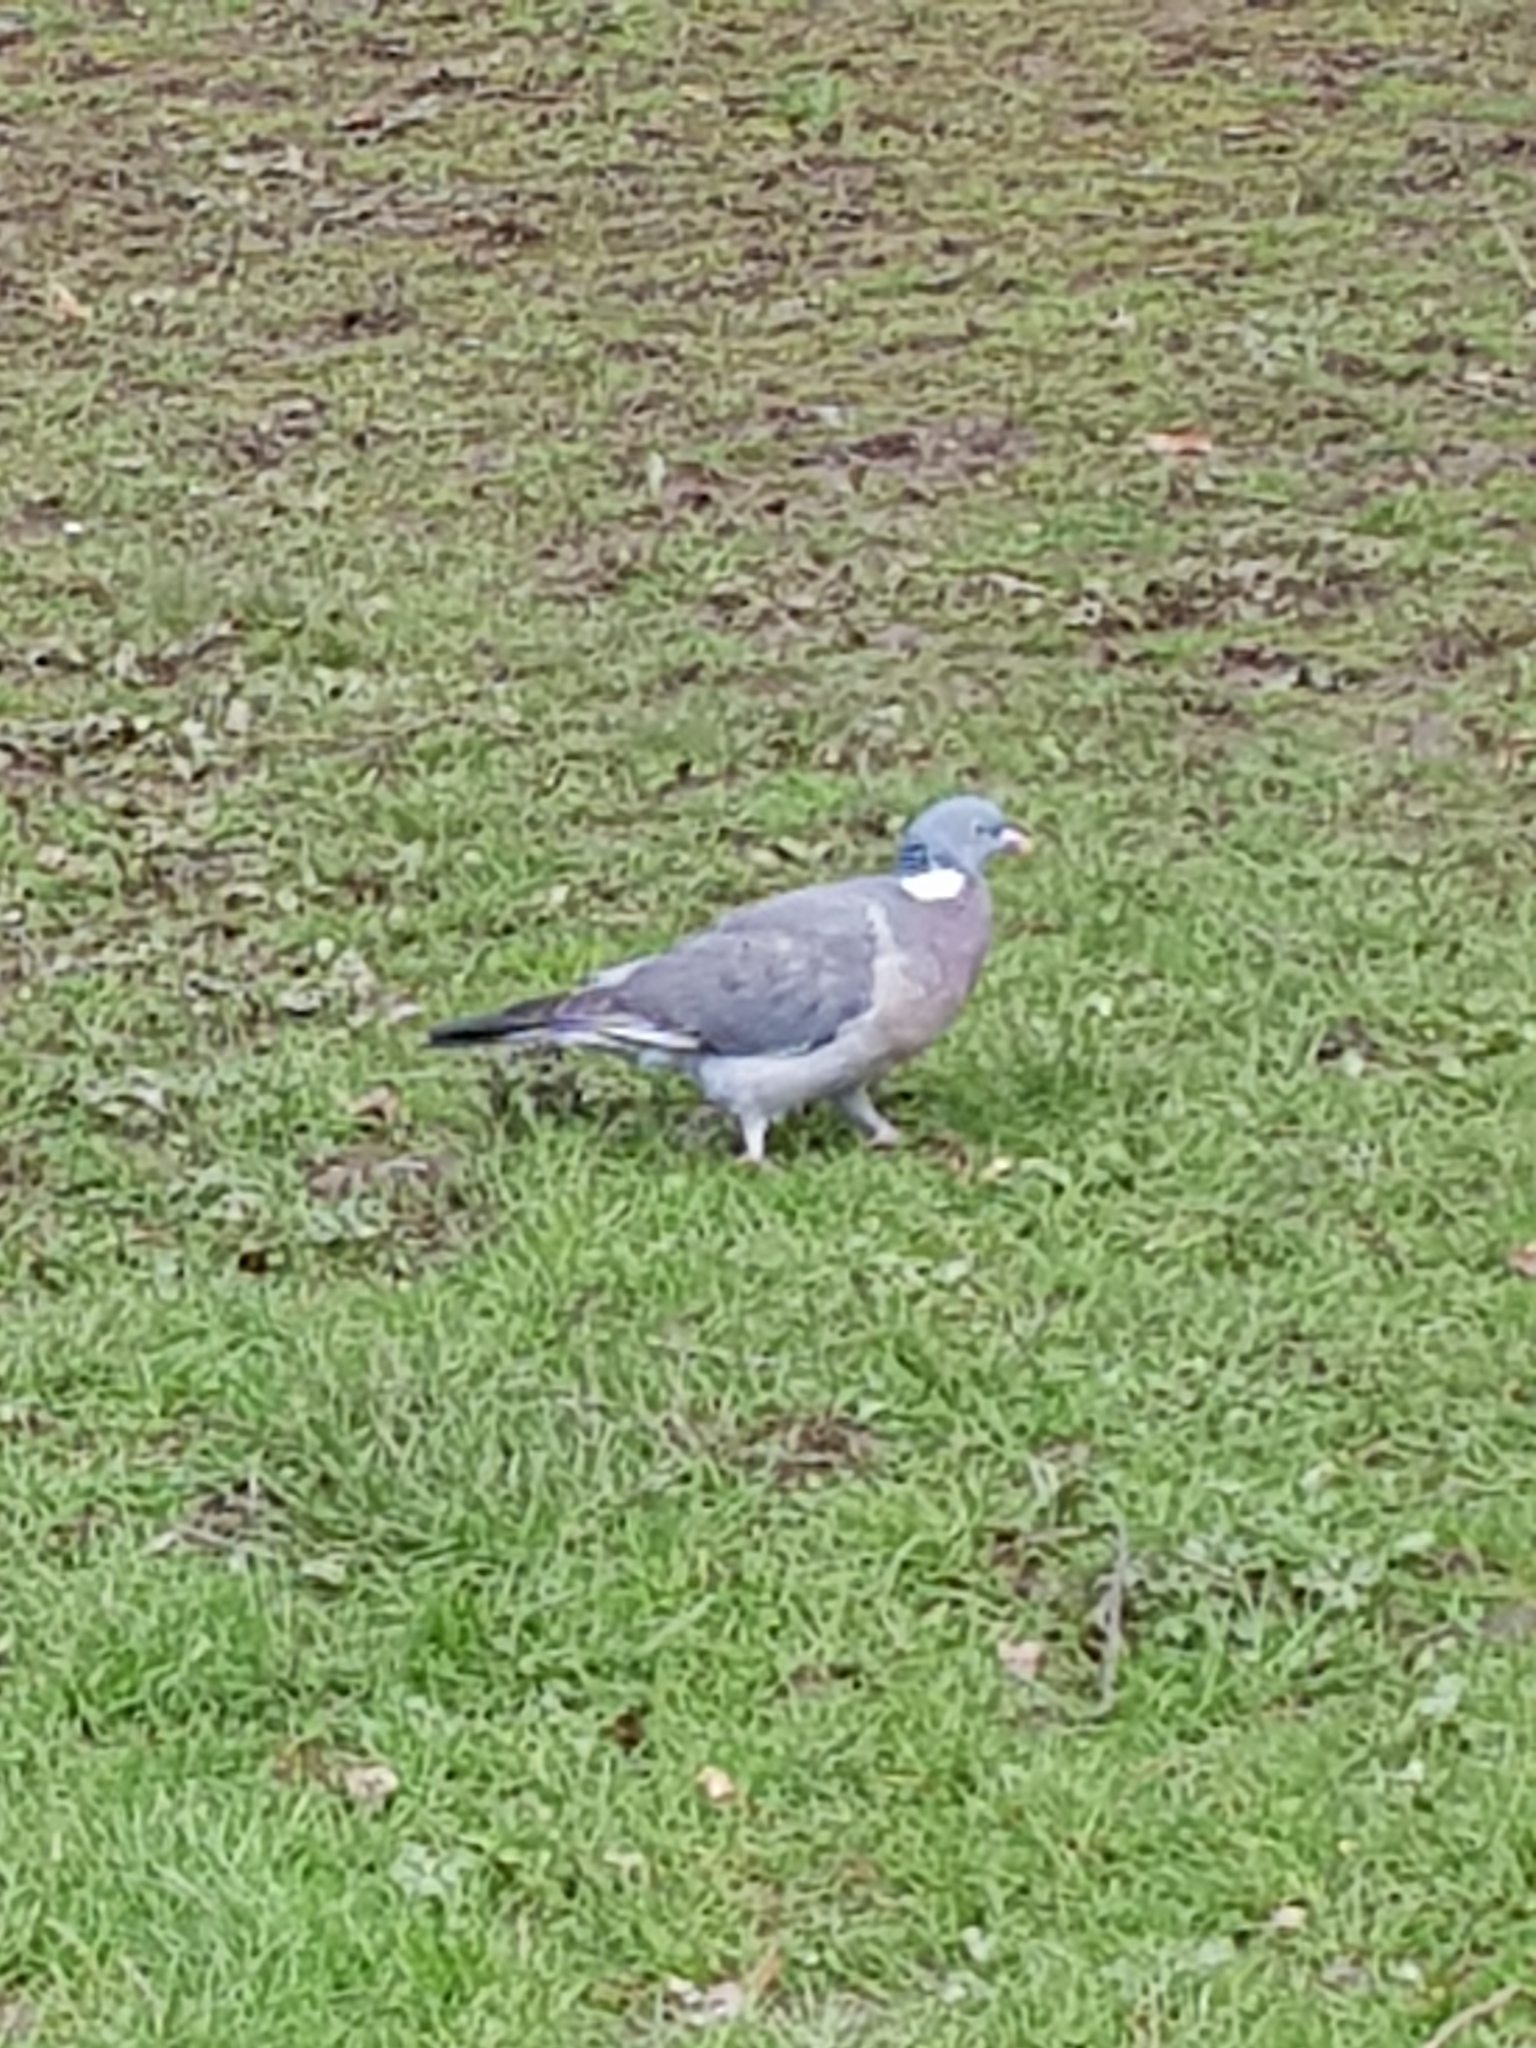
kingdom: Animalia
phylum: Chordata
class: Aves
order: Columbiformes
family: Columbidae
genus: Columba
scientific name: Columba palumbus
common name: Common wood pigeon
